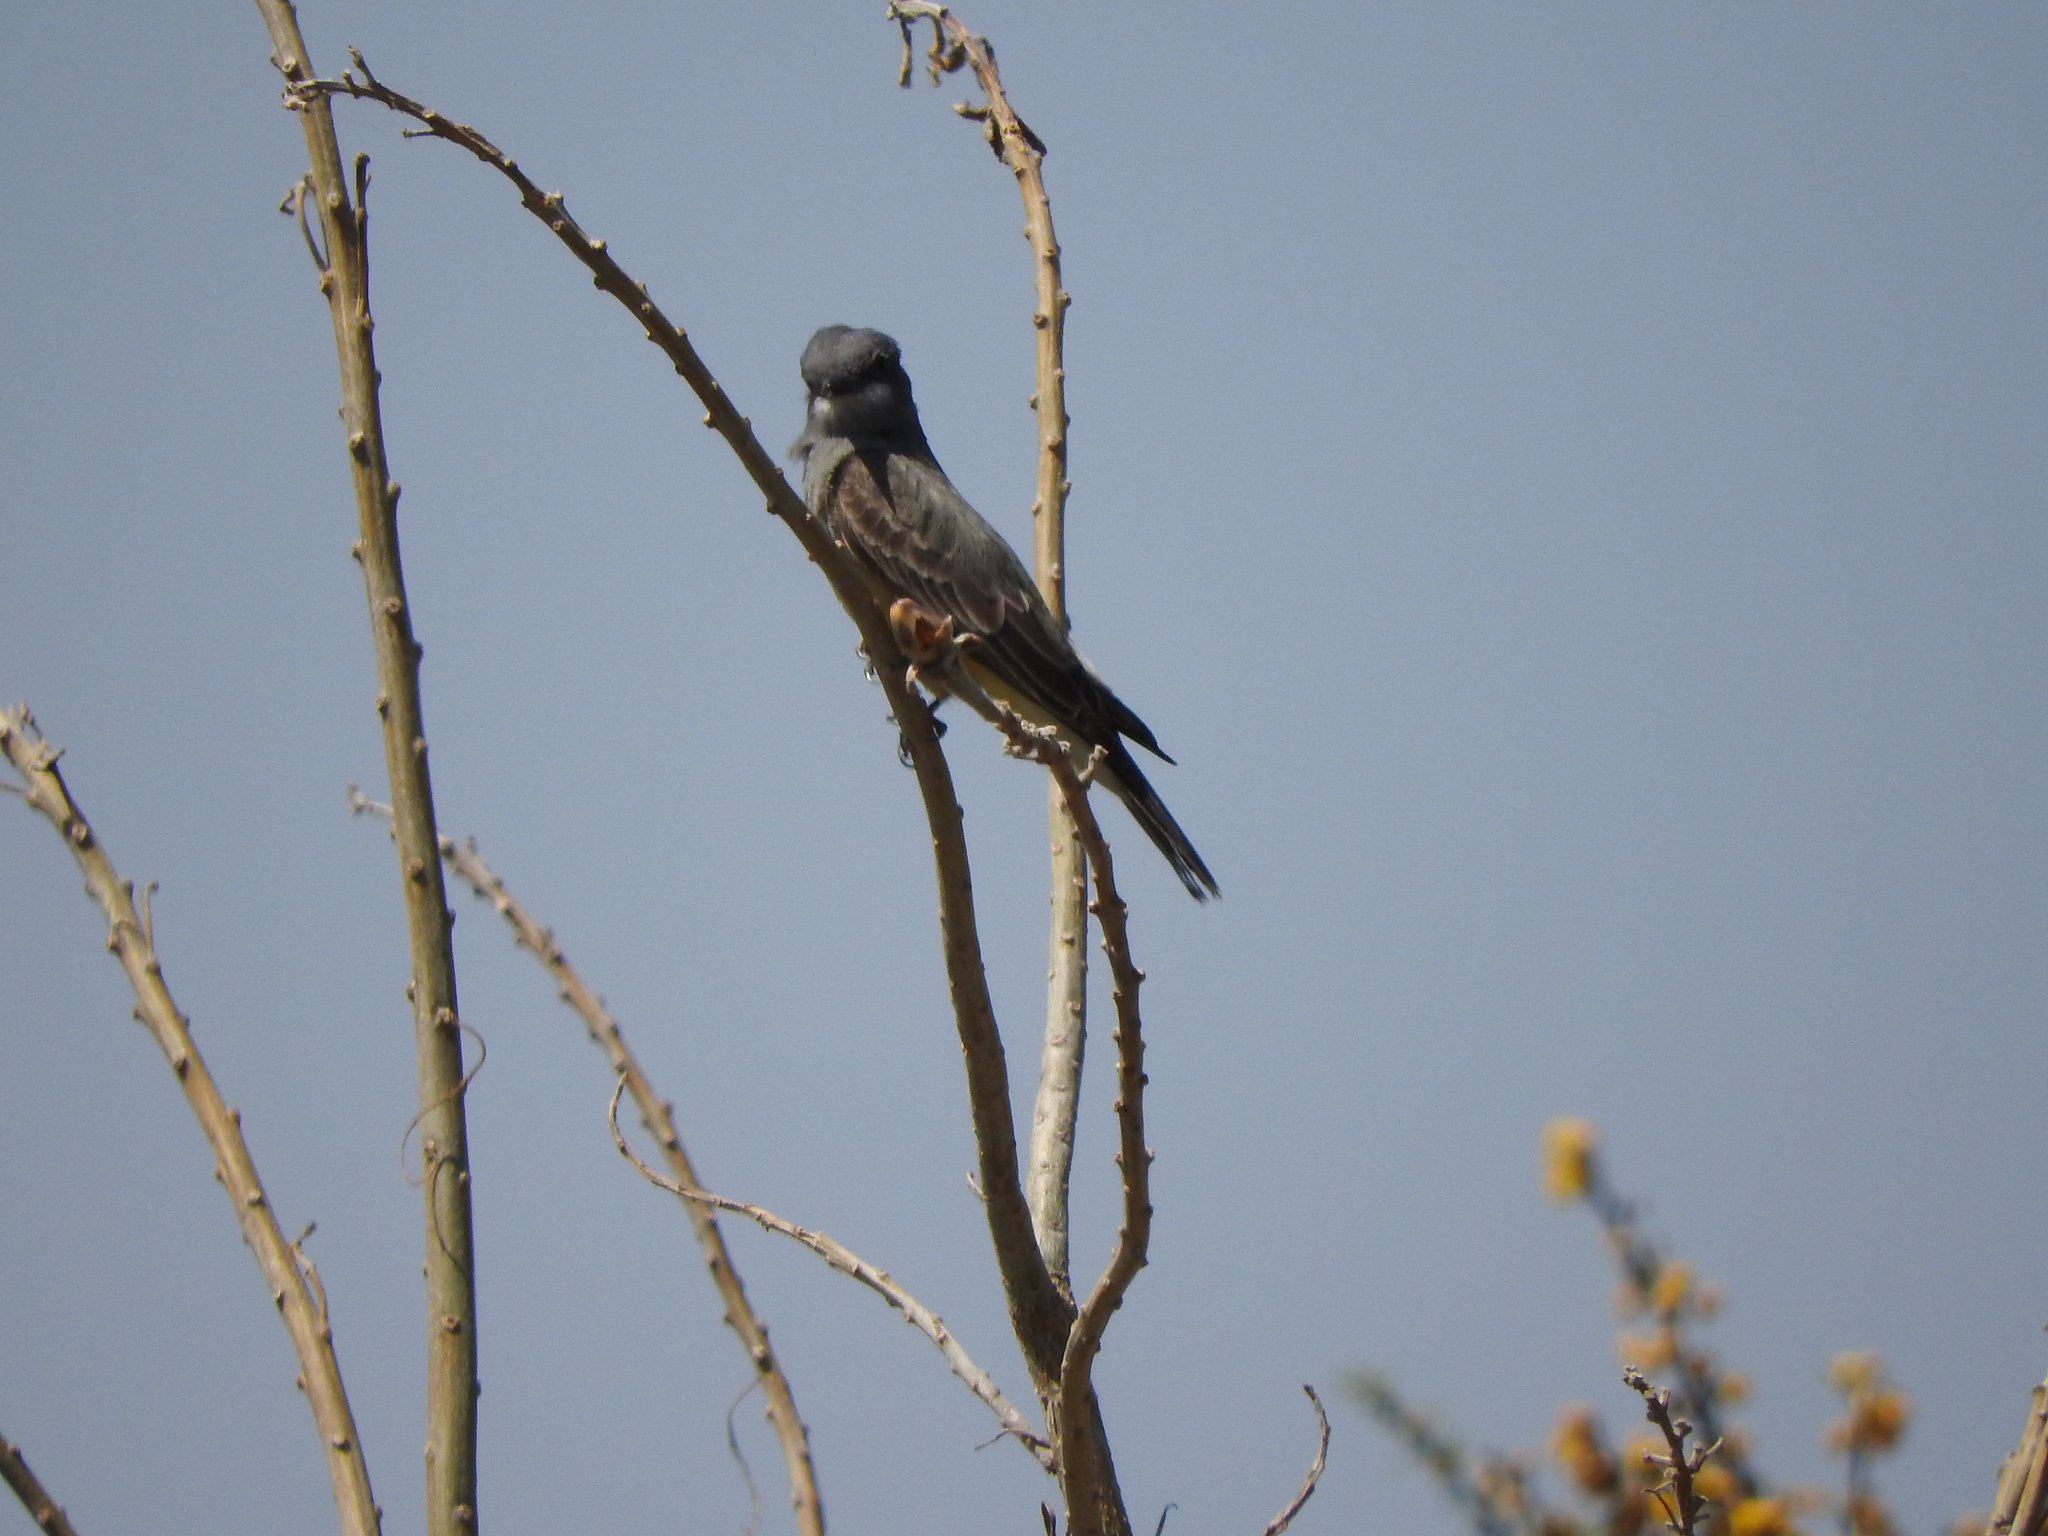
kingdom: Animalia
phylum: Chordata
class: Aves
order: Passeriformes
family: Tyrannidae
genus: Tyrannus
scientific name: Tyrannus vociferans
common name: Cassin's kingbird
